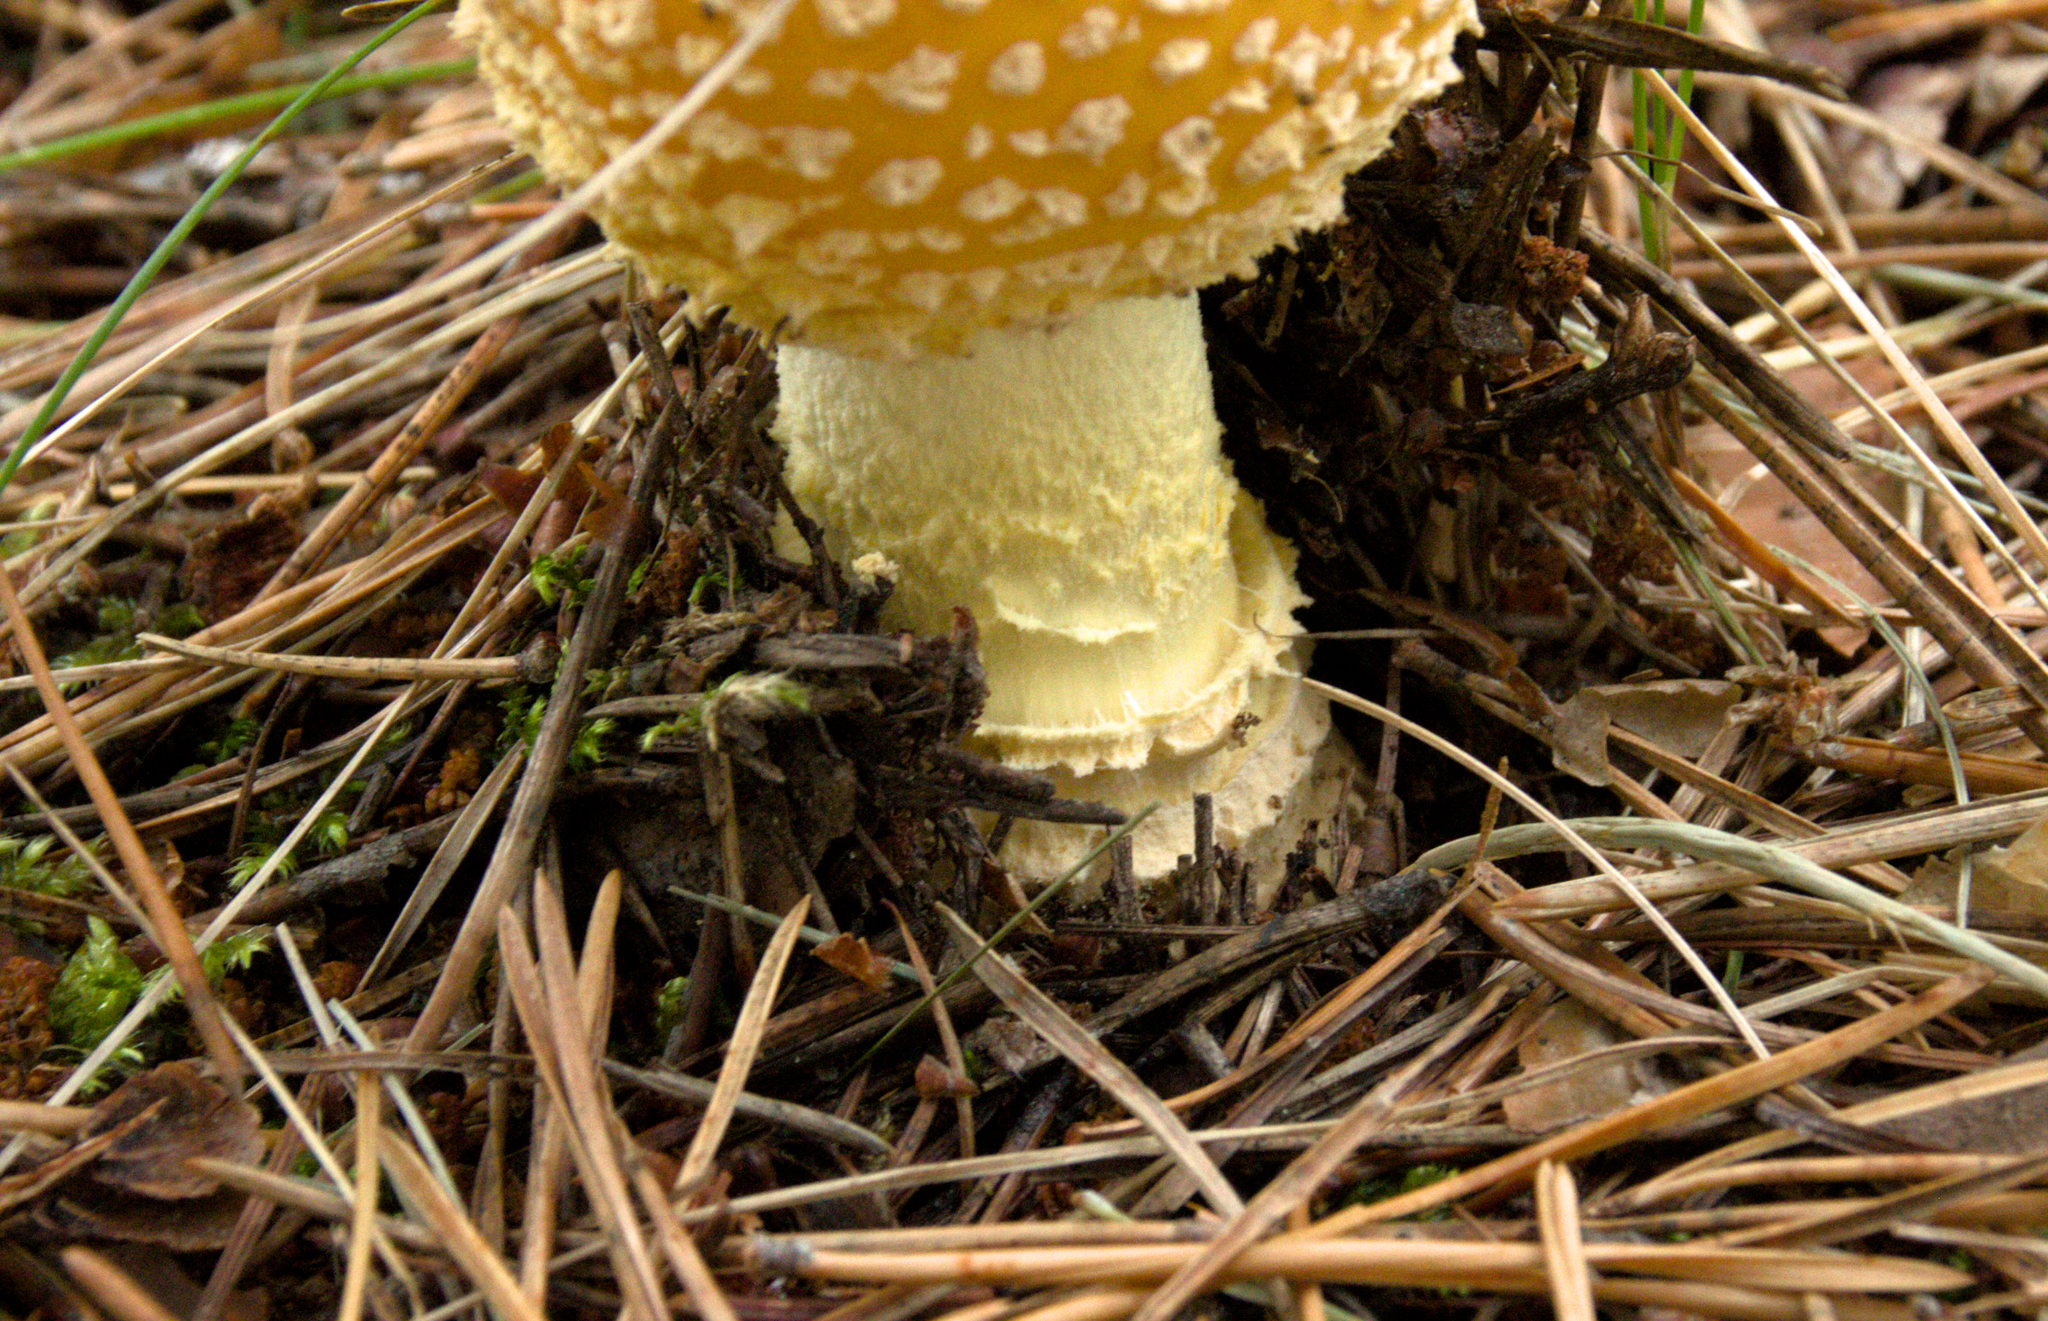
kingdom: Fungi
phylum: Basidiomycota
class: Agaricomycetes
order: Agaricales
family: Amanitaceae
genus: Amanita
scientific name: Amanita muscaria
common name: Fly agaric
